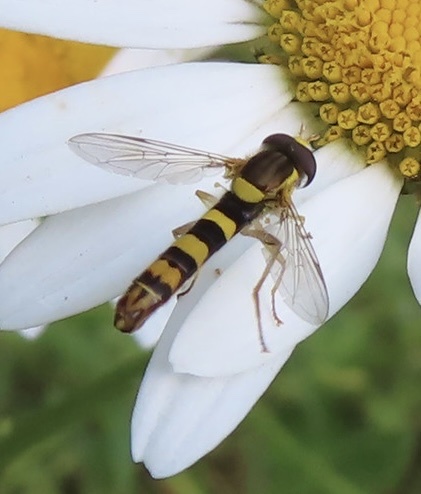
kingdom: Animalia
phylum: Arthropoda
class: Insecta
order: Diptera
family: Syrphidae
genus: Sphaerophoria
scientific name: Sphaerophoria scripta
